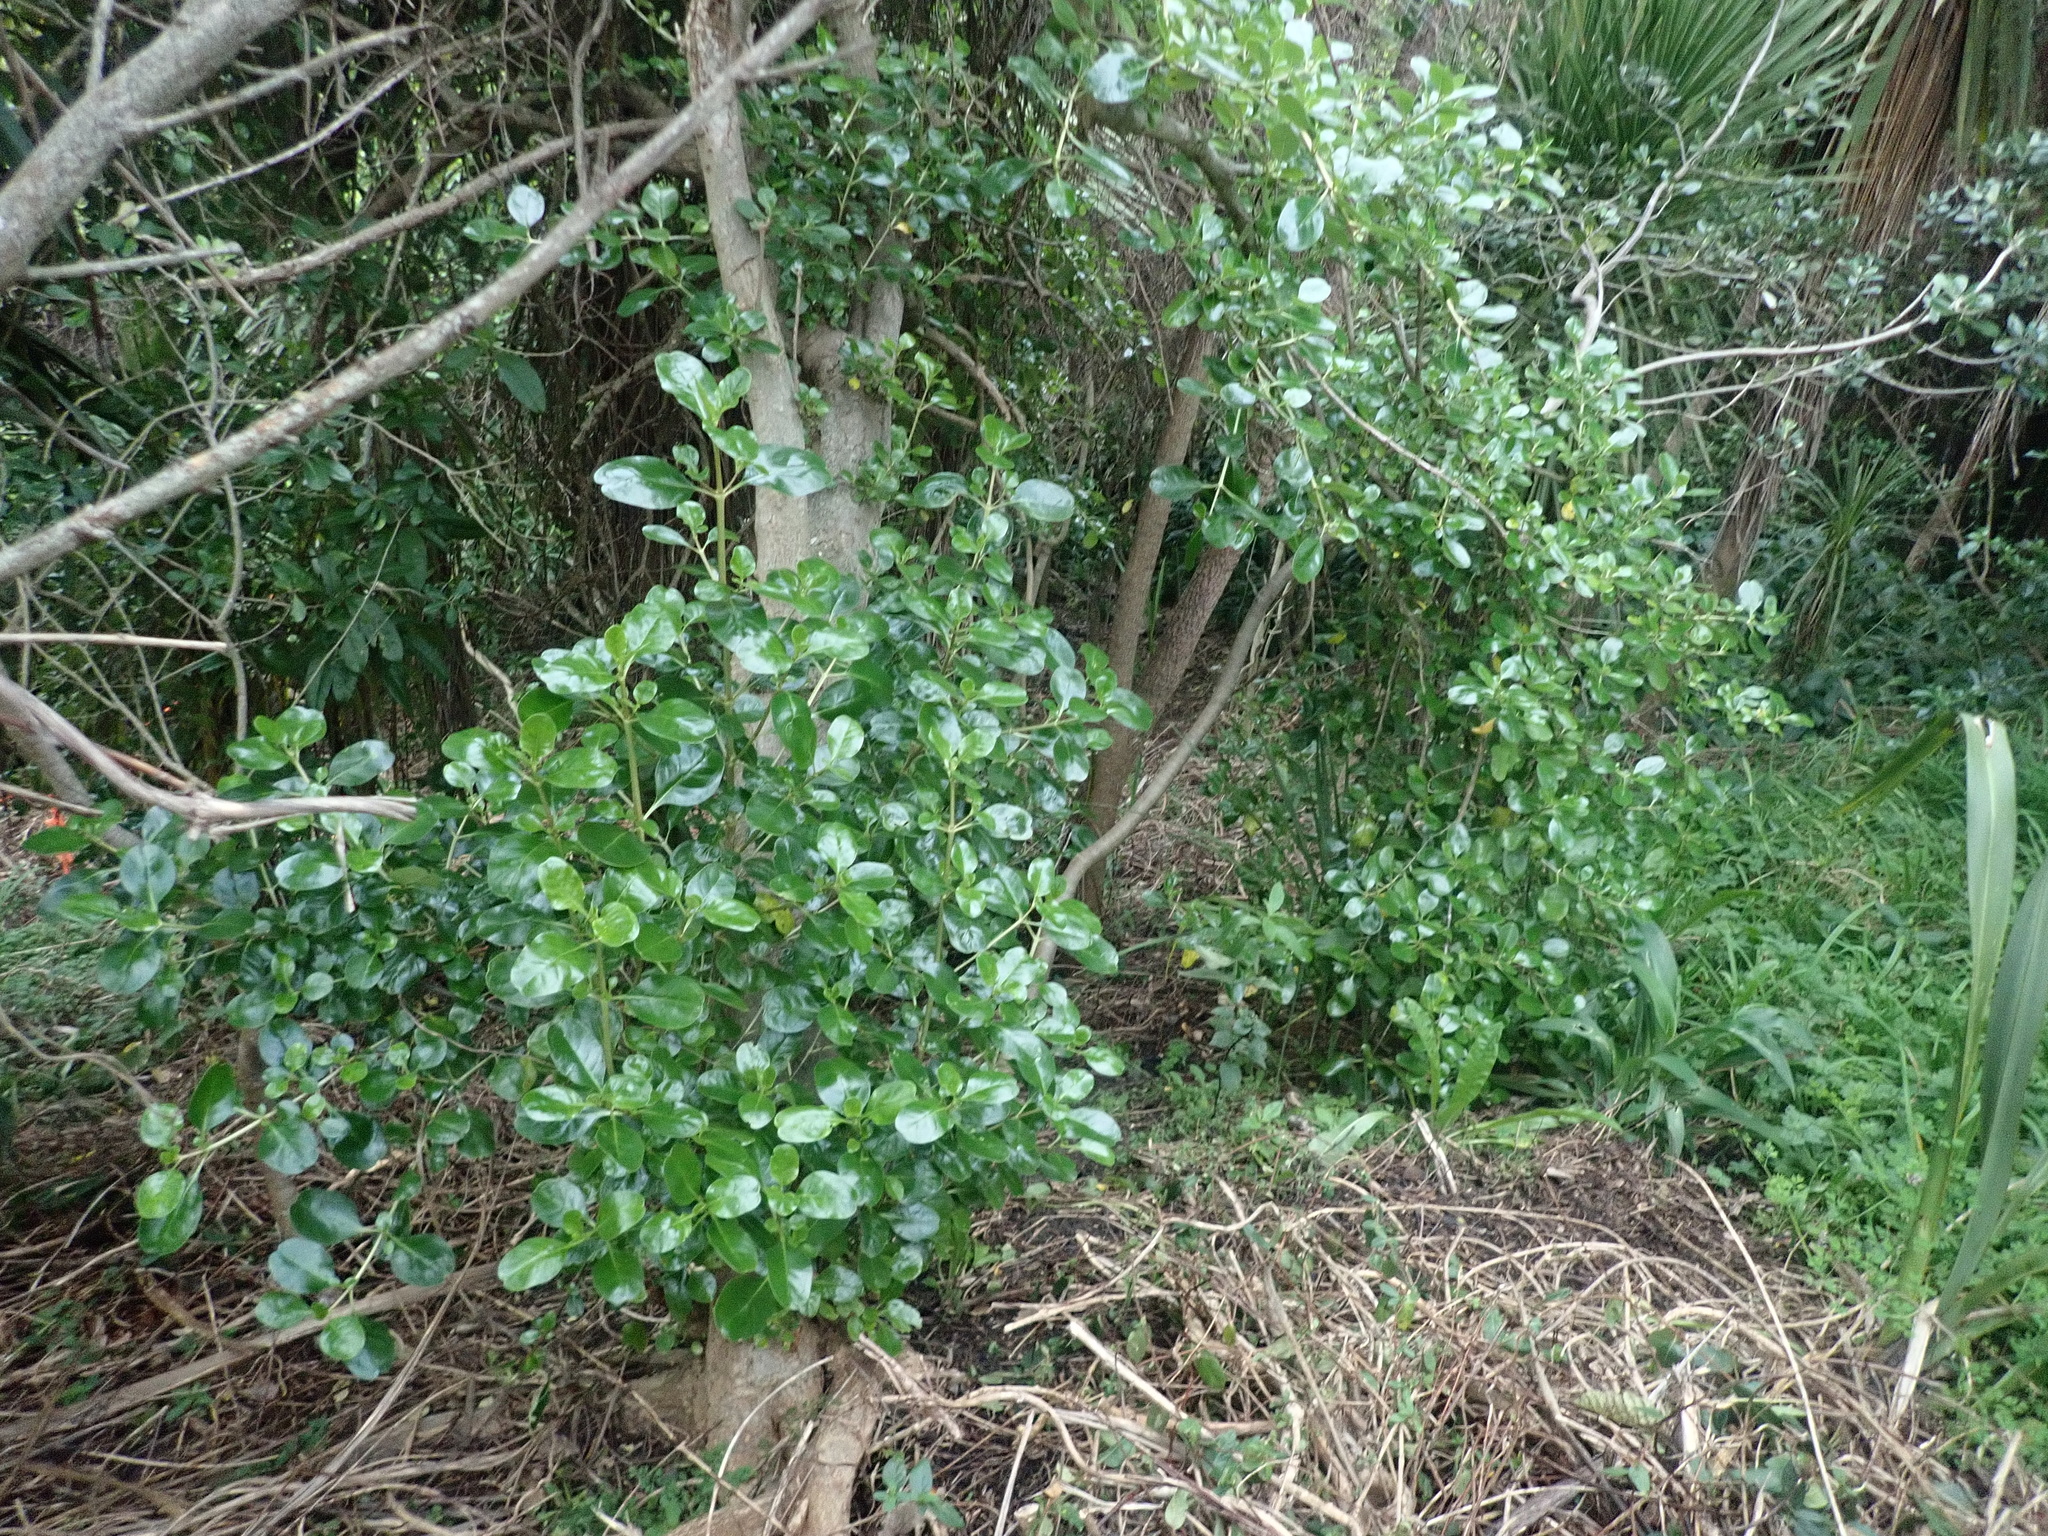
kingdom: Plantae
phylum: Tracheophyta
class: Magnoliopsida
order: Gentianales
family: Rubiaceae
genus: Coprosma
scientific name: Coprosma repens
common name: Tree bedstraw
